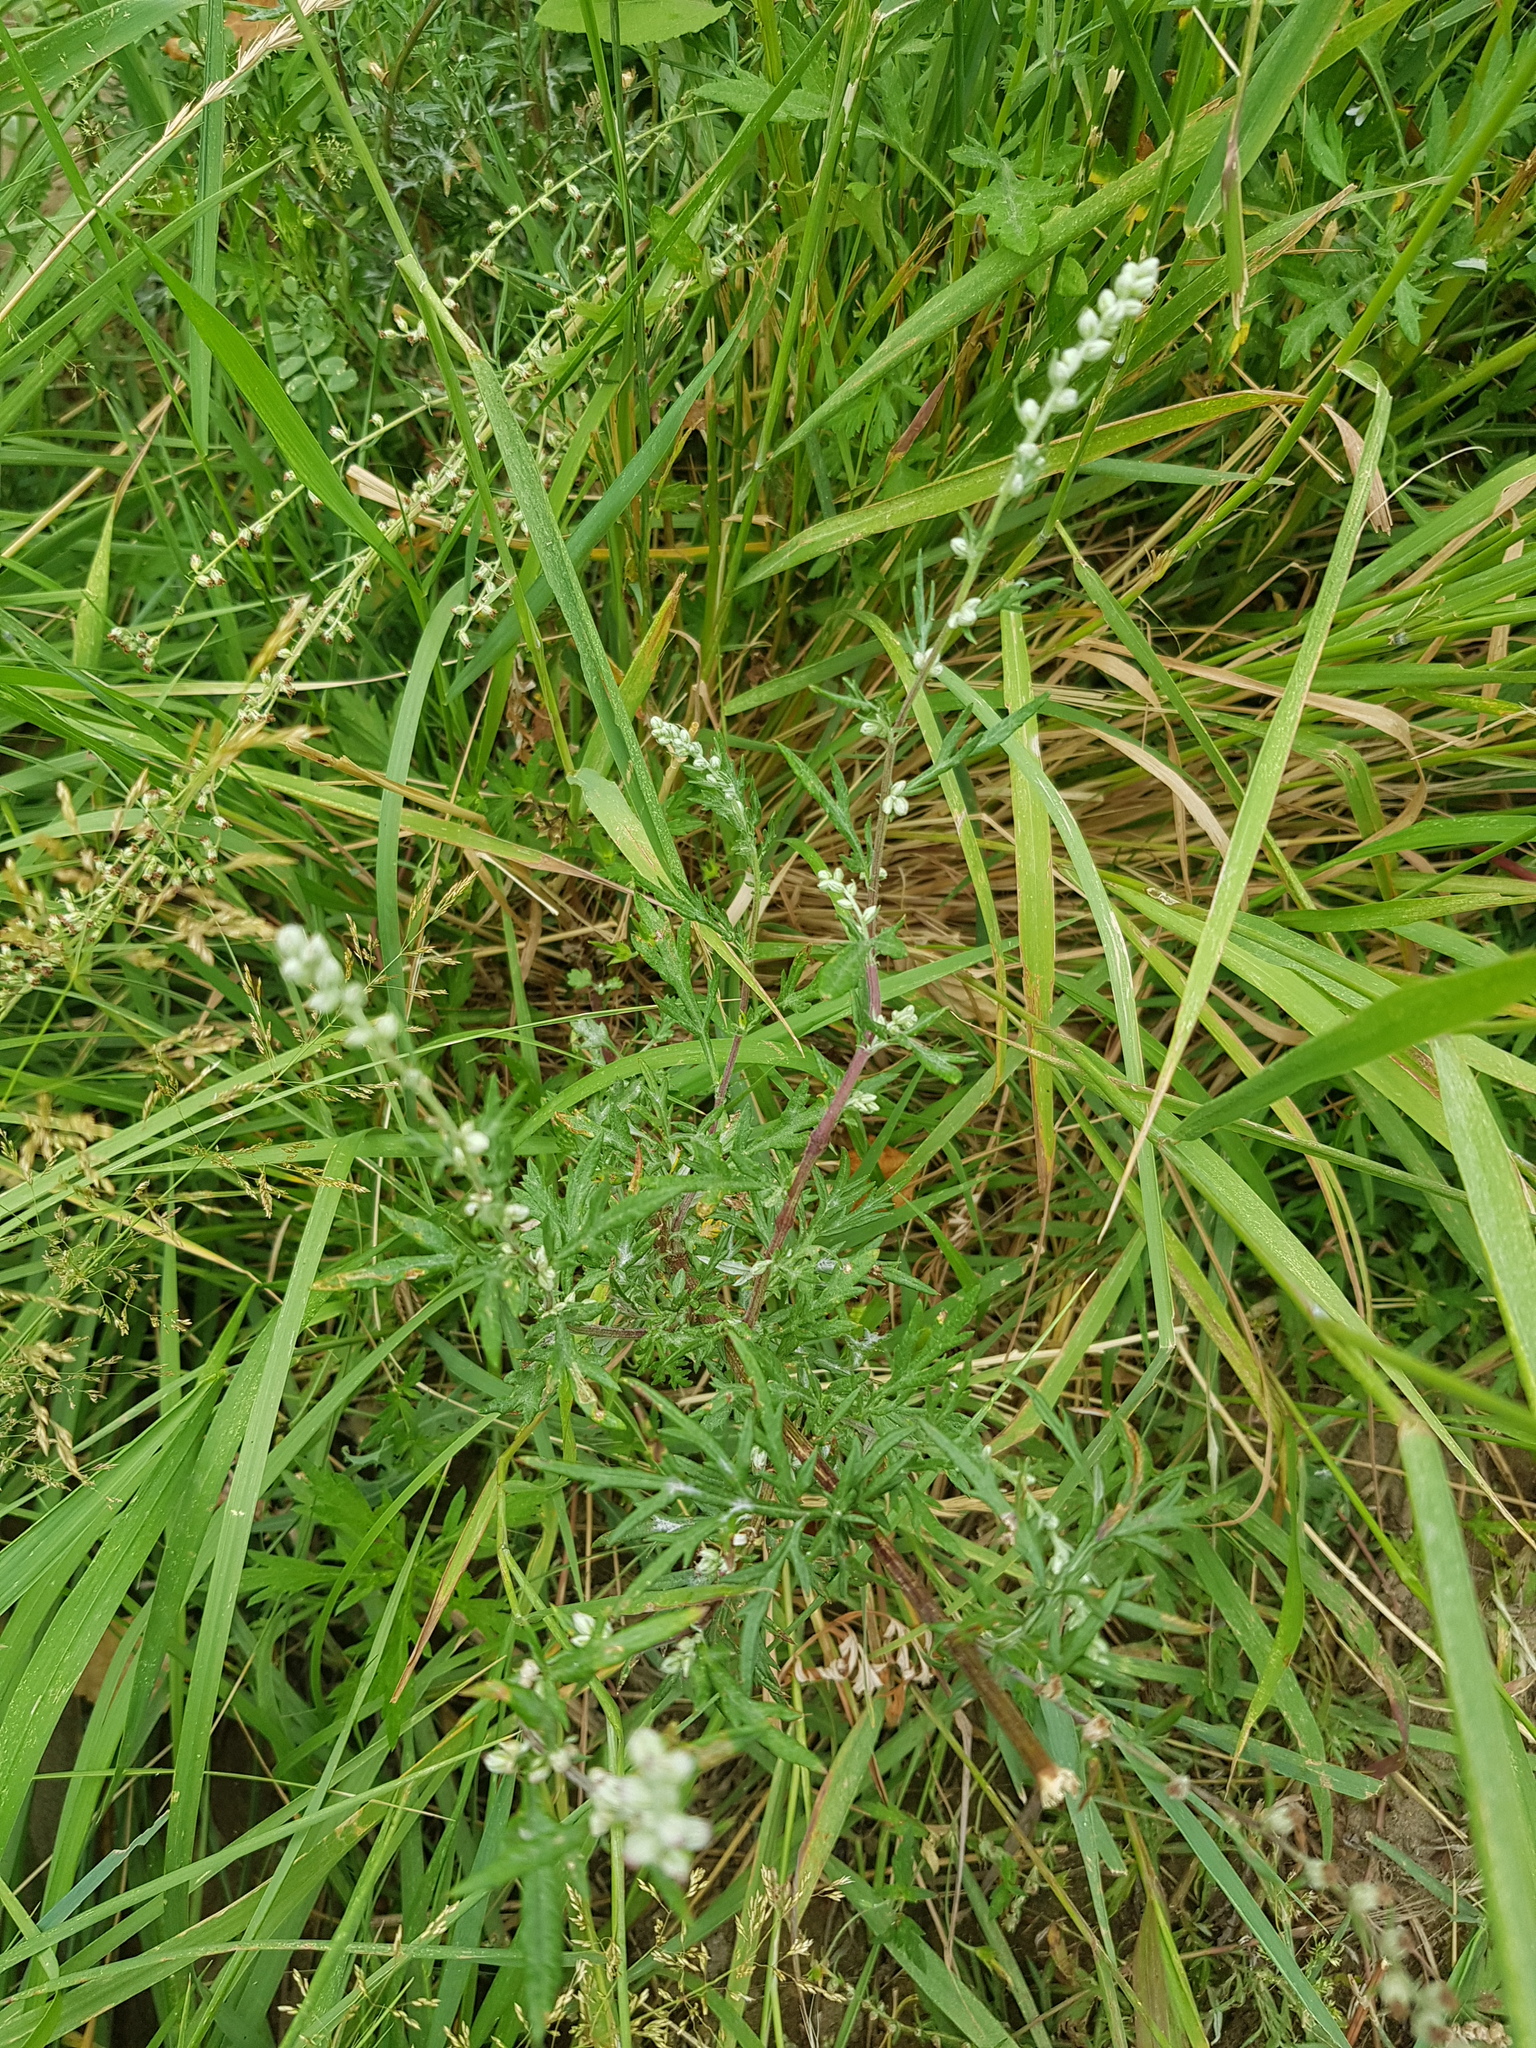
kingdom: Plantae
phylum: Tracheophyta
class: Magnoliopsida
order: Asterales
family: Asteraceae
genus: Artemisia
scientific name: Artemisia vulgaris
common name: Mugwort
